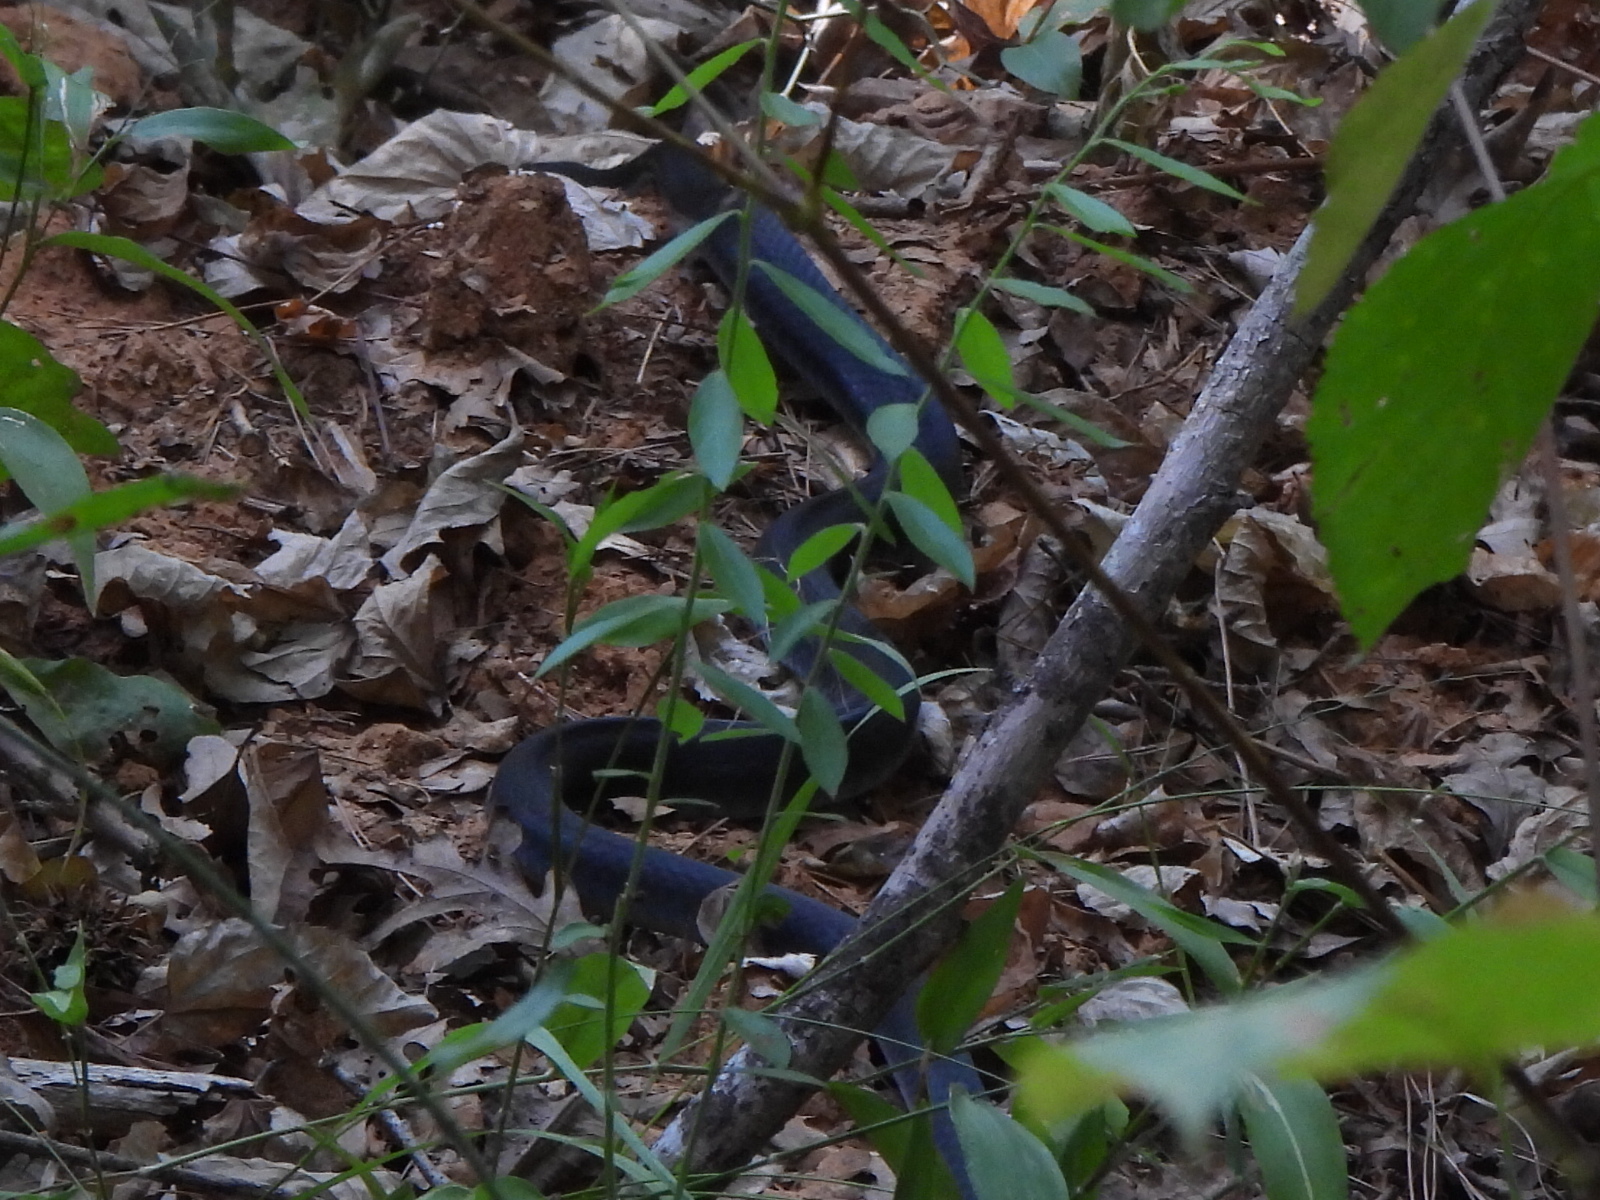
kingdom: Animalia
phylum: Chordata
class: Squamata
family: Colubridae
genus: Coluber
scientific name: Coluber constrictor
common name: Eastern racer
